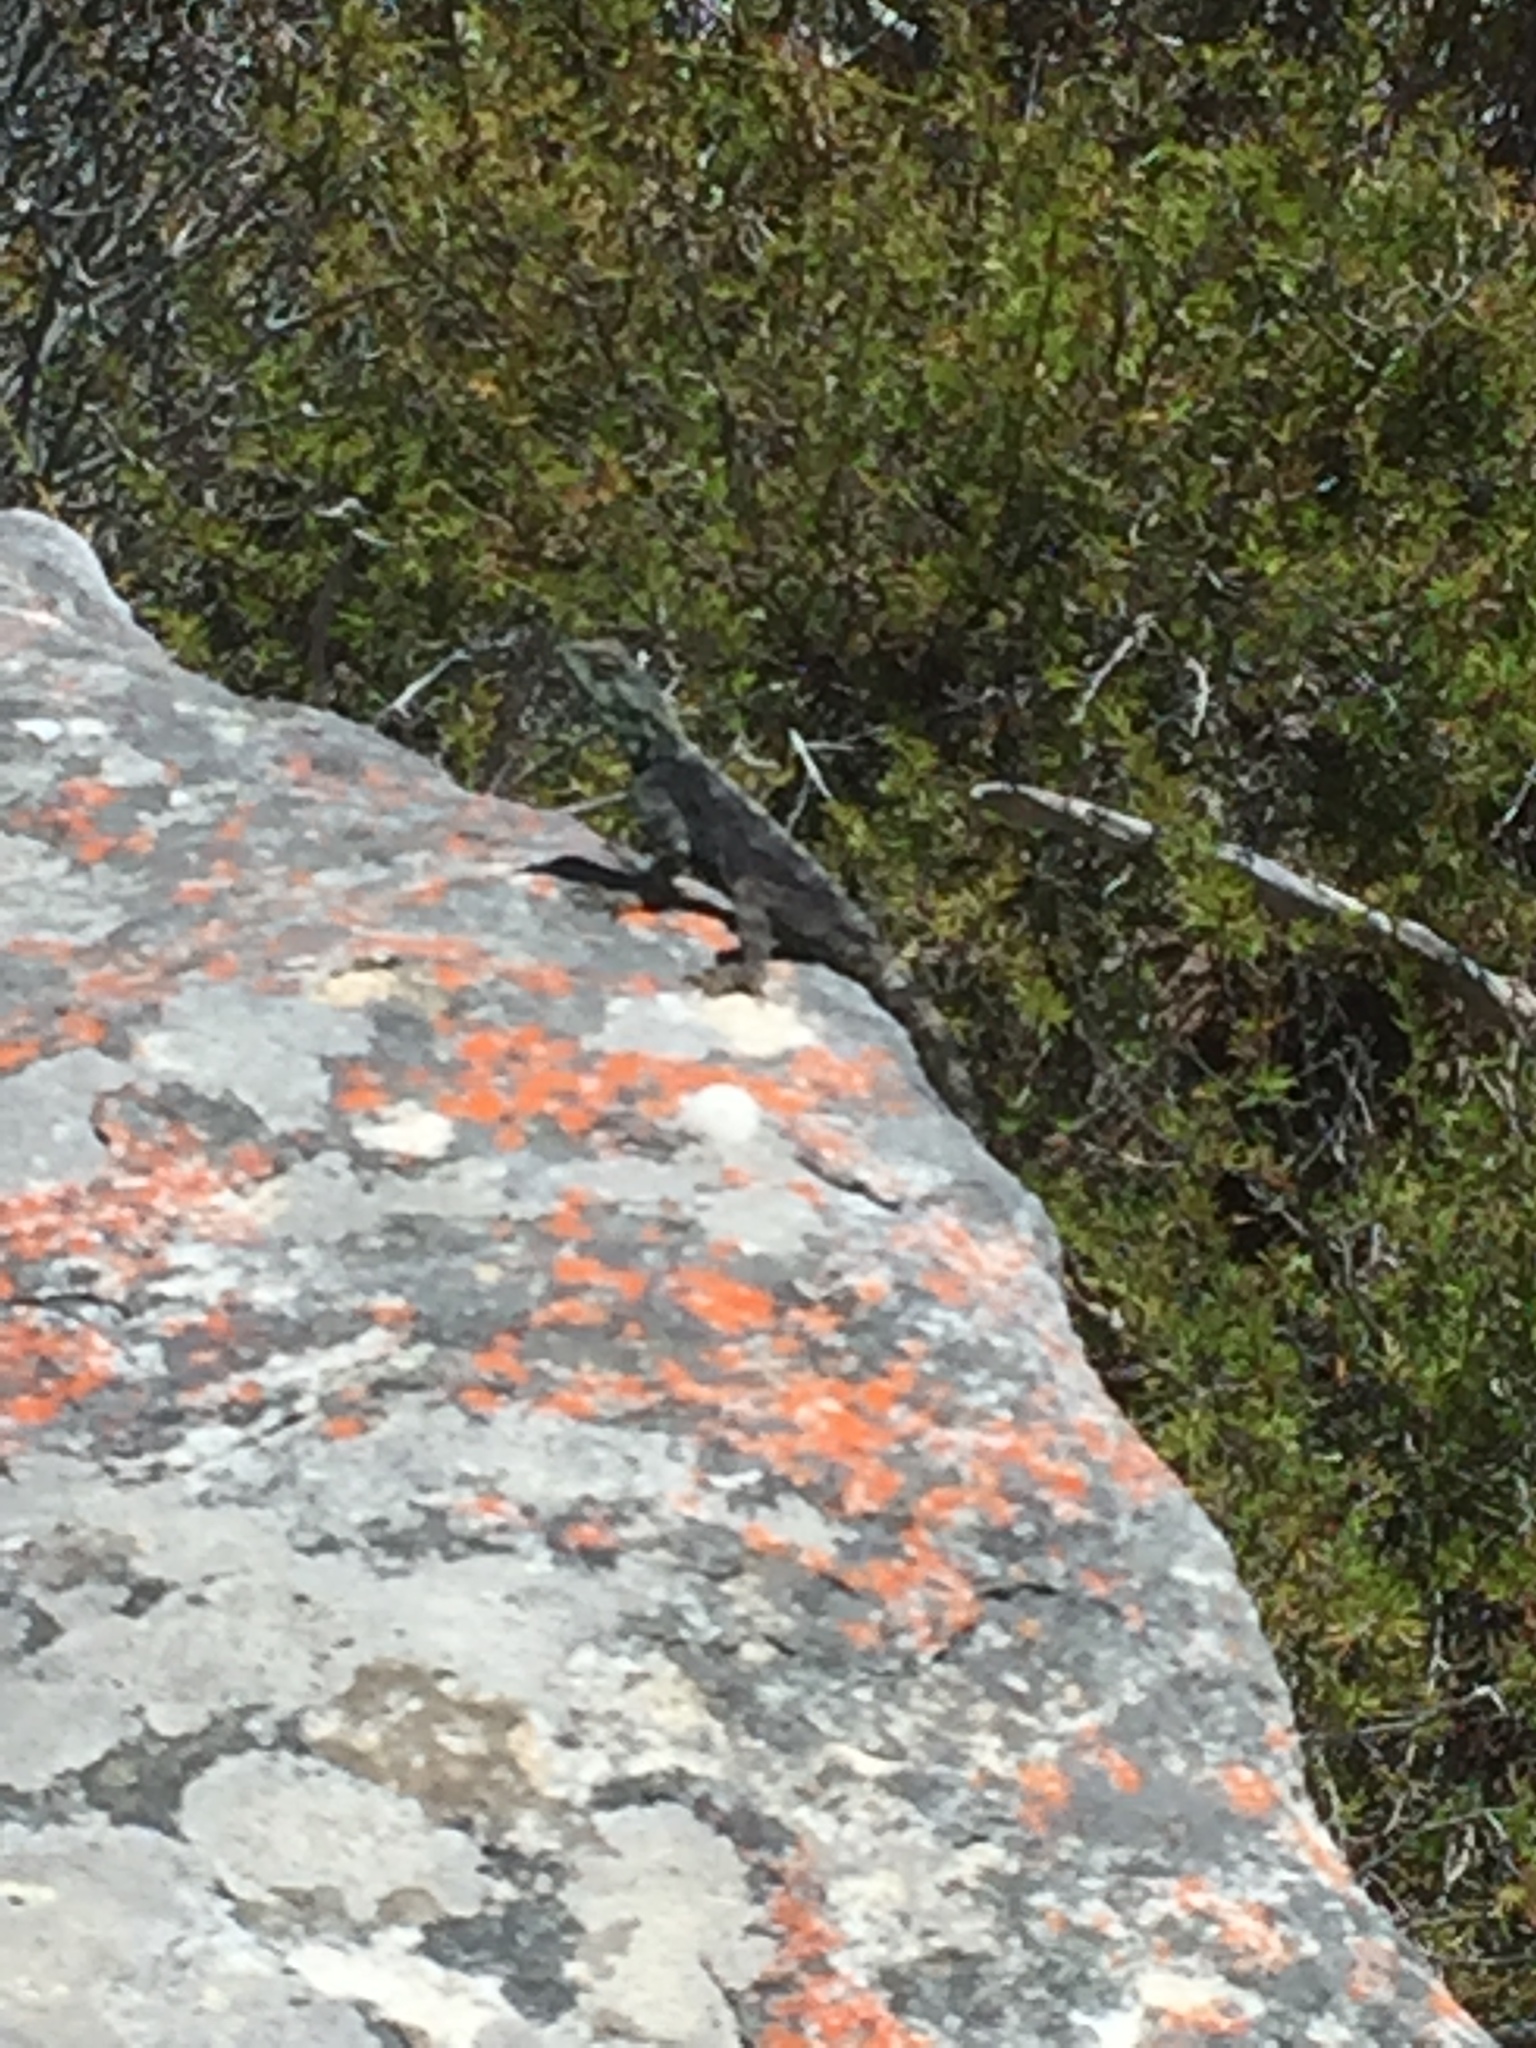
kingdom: Animalia
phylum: Chordata
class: Squamata
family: Agamidae
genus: Agama
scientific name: Agama atra
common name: Southern african rock agama
